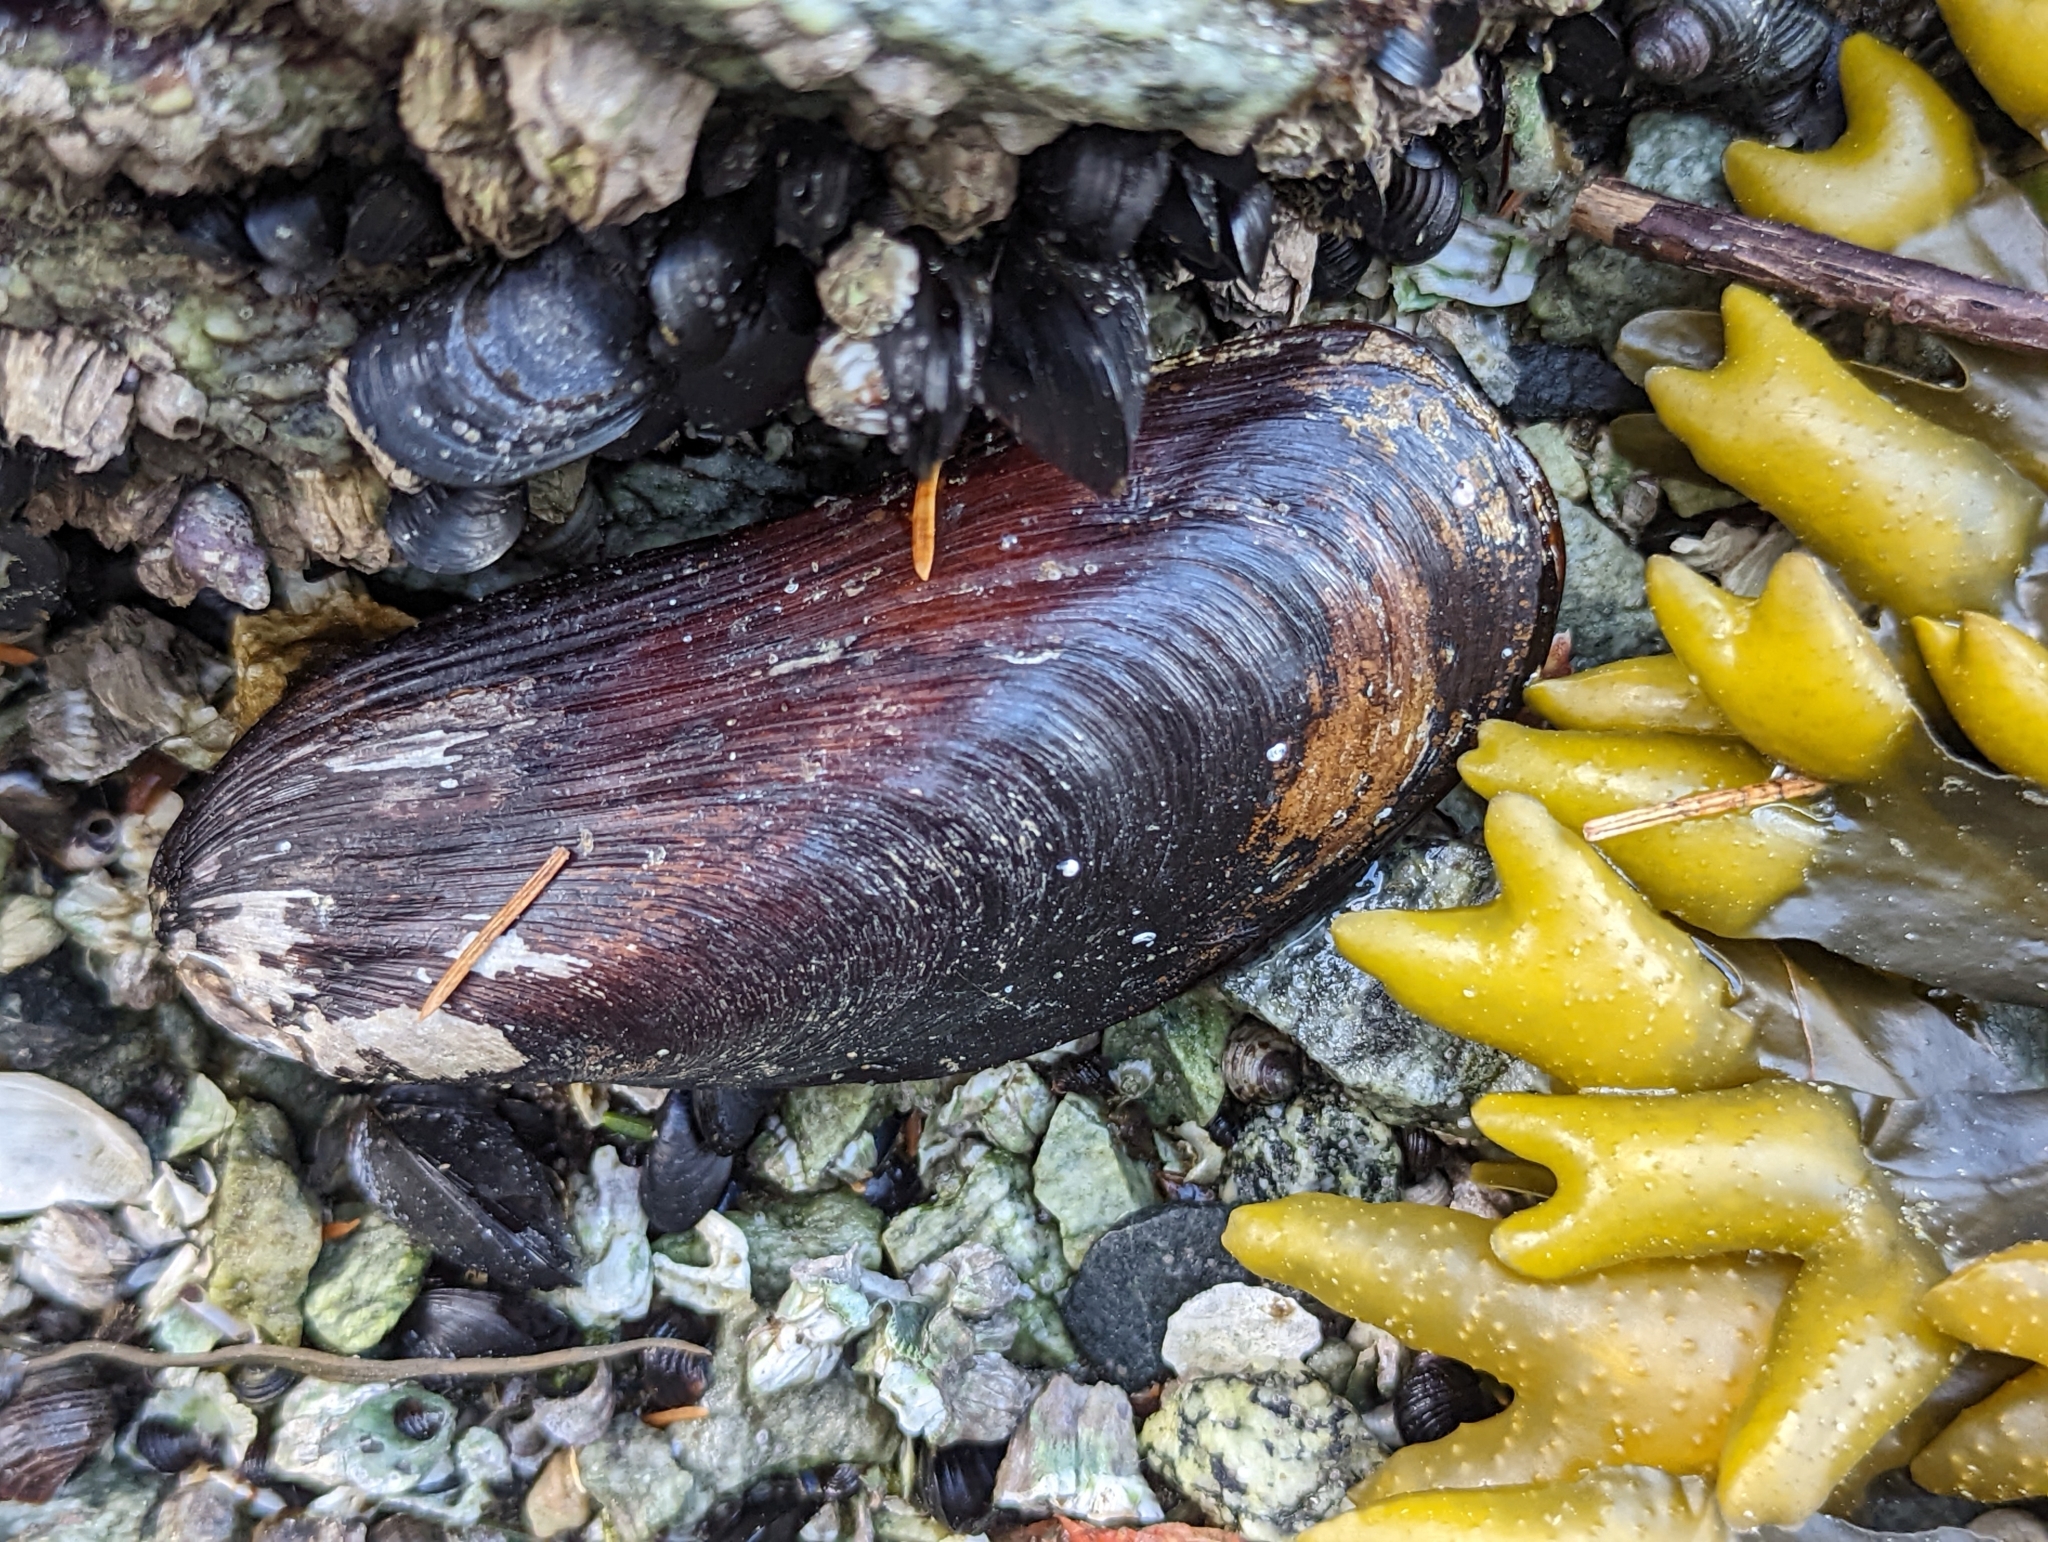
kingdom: Animalia
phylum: Mollusca
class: Bivalvia
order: Mytilida
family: Mytilidae
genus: Modiolus
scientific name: Modiolus rectus
